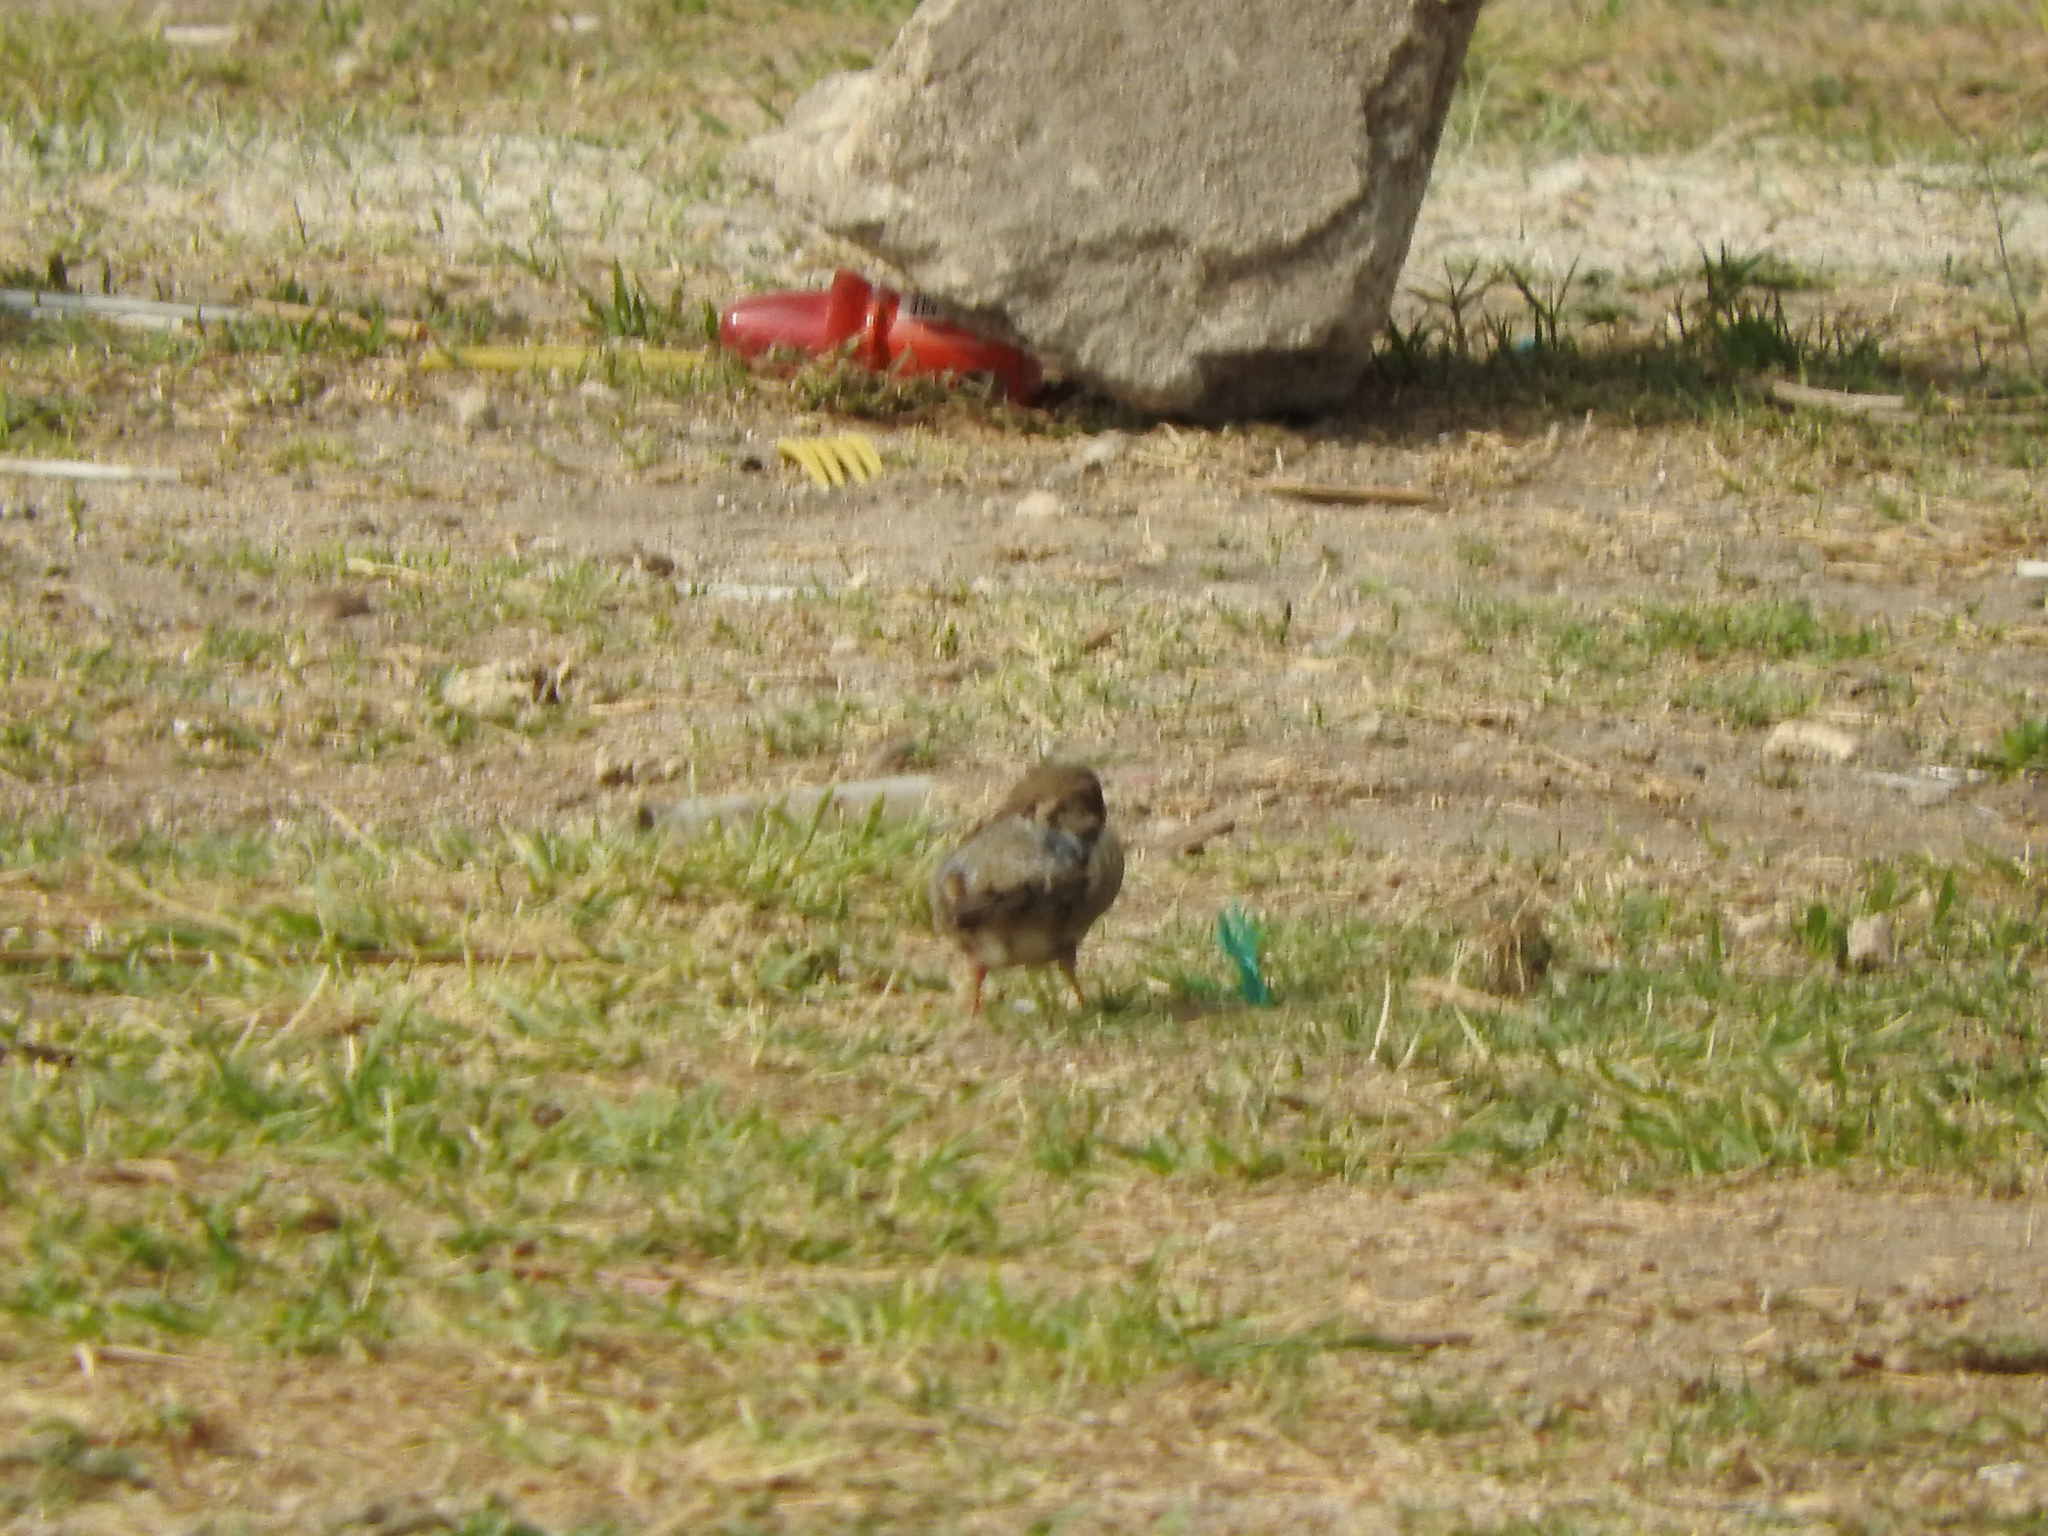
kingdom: Animalia
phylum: Chordata
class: Aves
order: Passeriformes
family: Passeridae
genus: Passer
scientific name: Passer domesticus
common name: House sparrow
